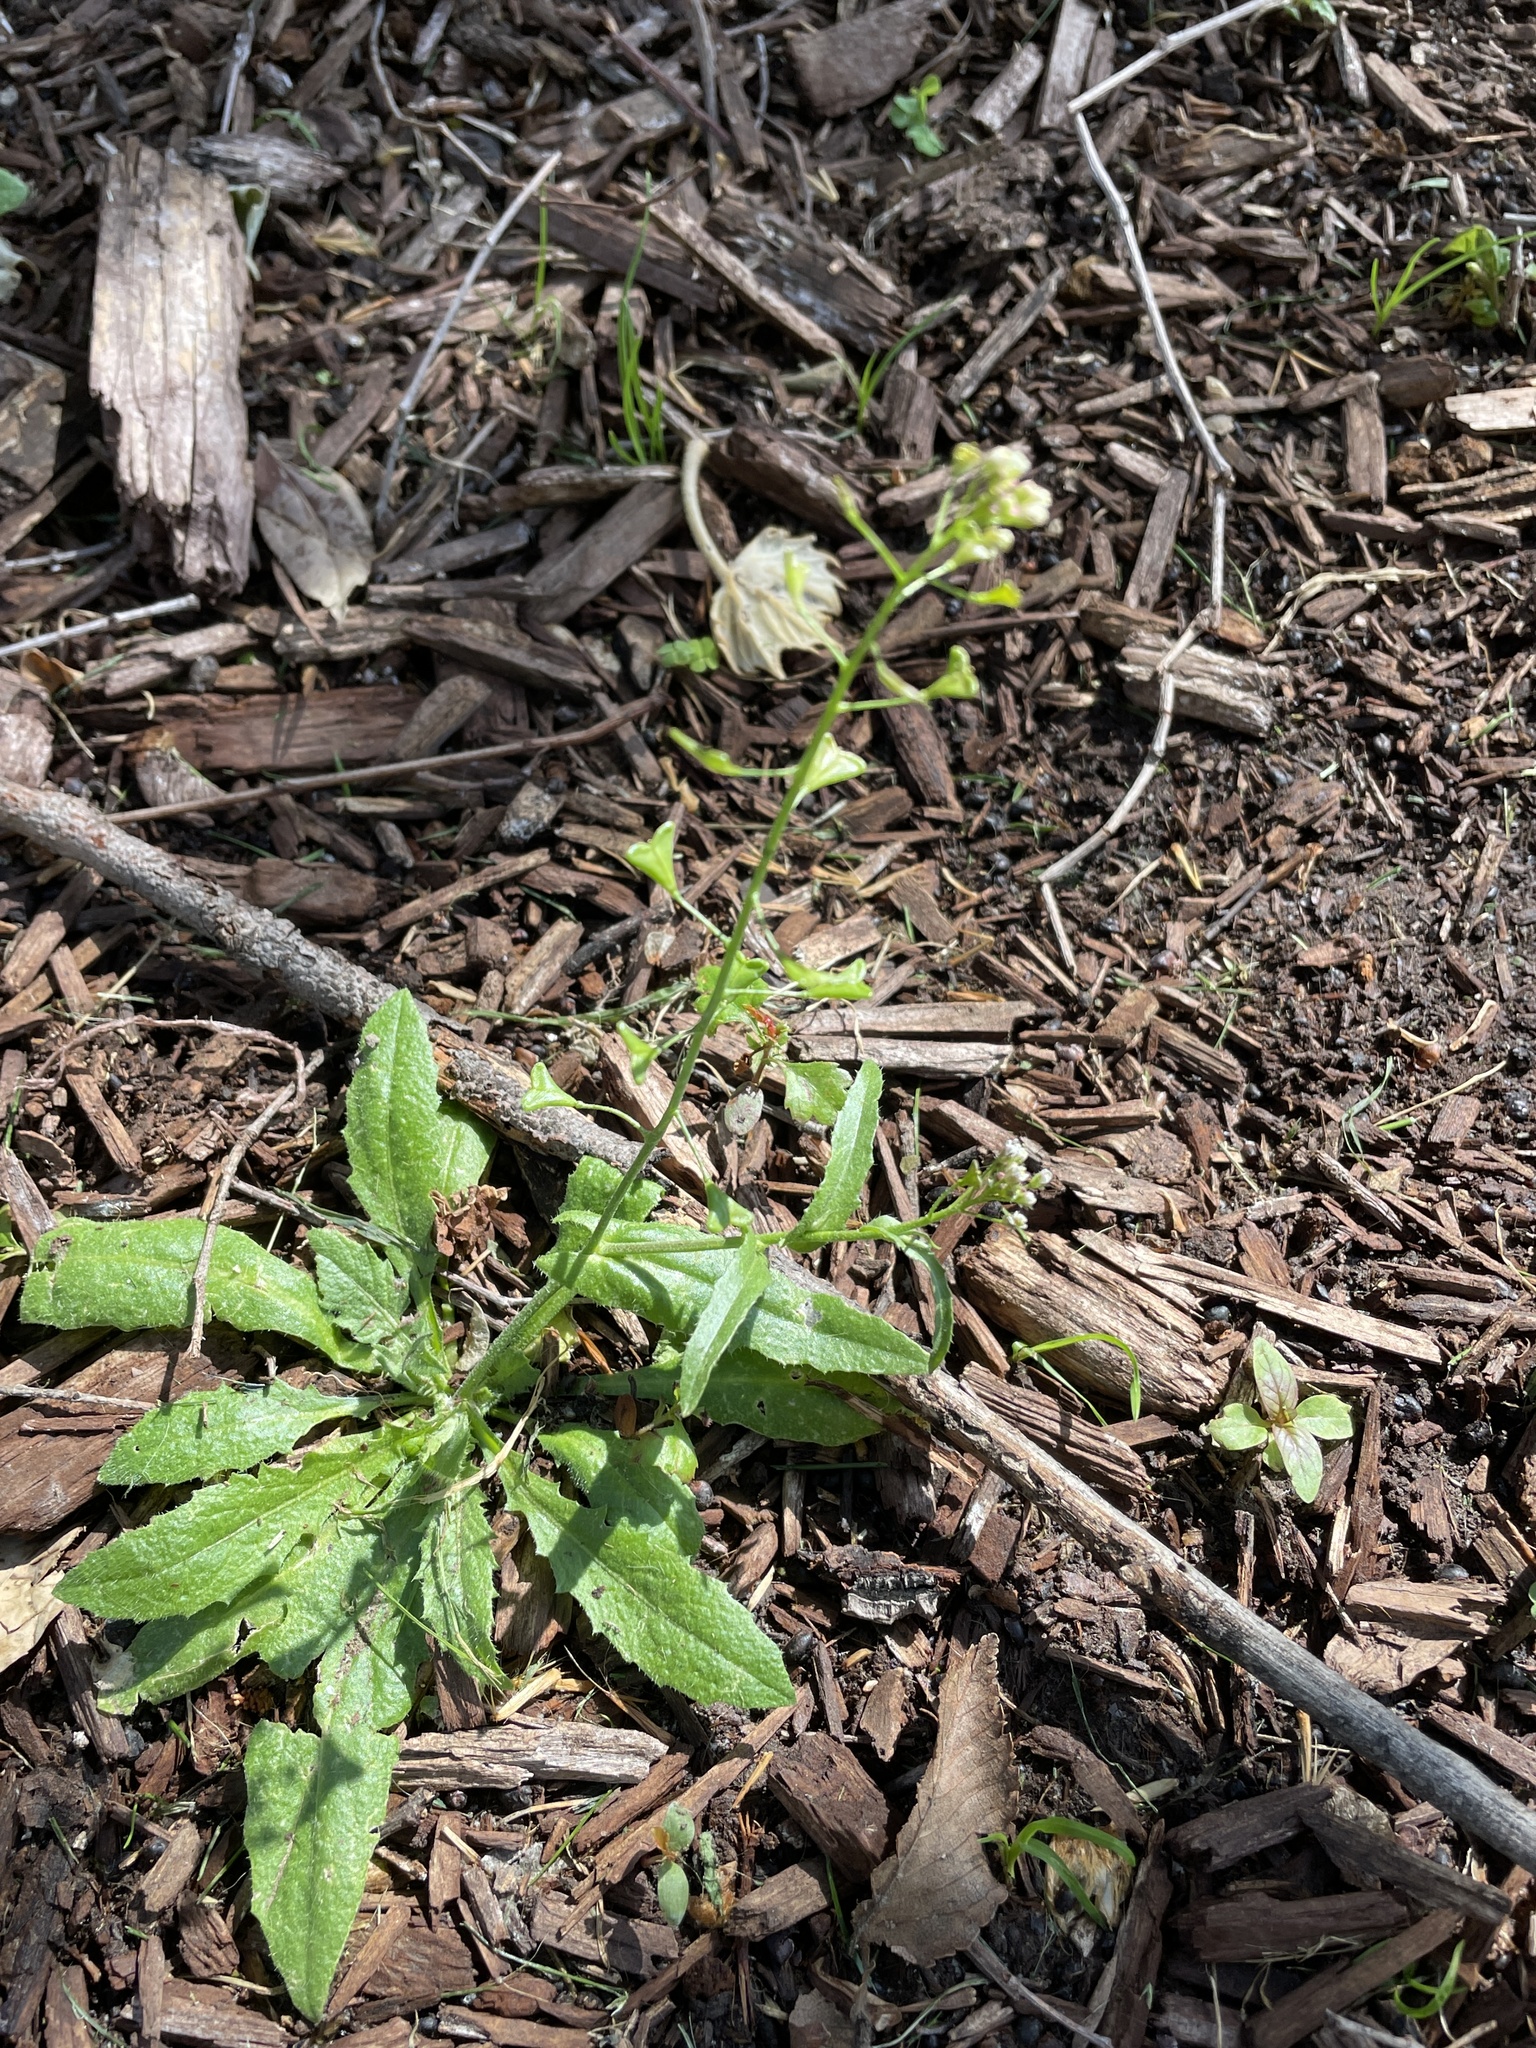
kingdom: Plantae
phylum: Tracheophyta
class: Magnoliopsida
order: Brassicales
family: Brassicaceae
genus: Capsella
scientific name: Capsella bursa-pastoris
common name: Shepherd's purse
